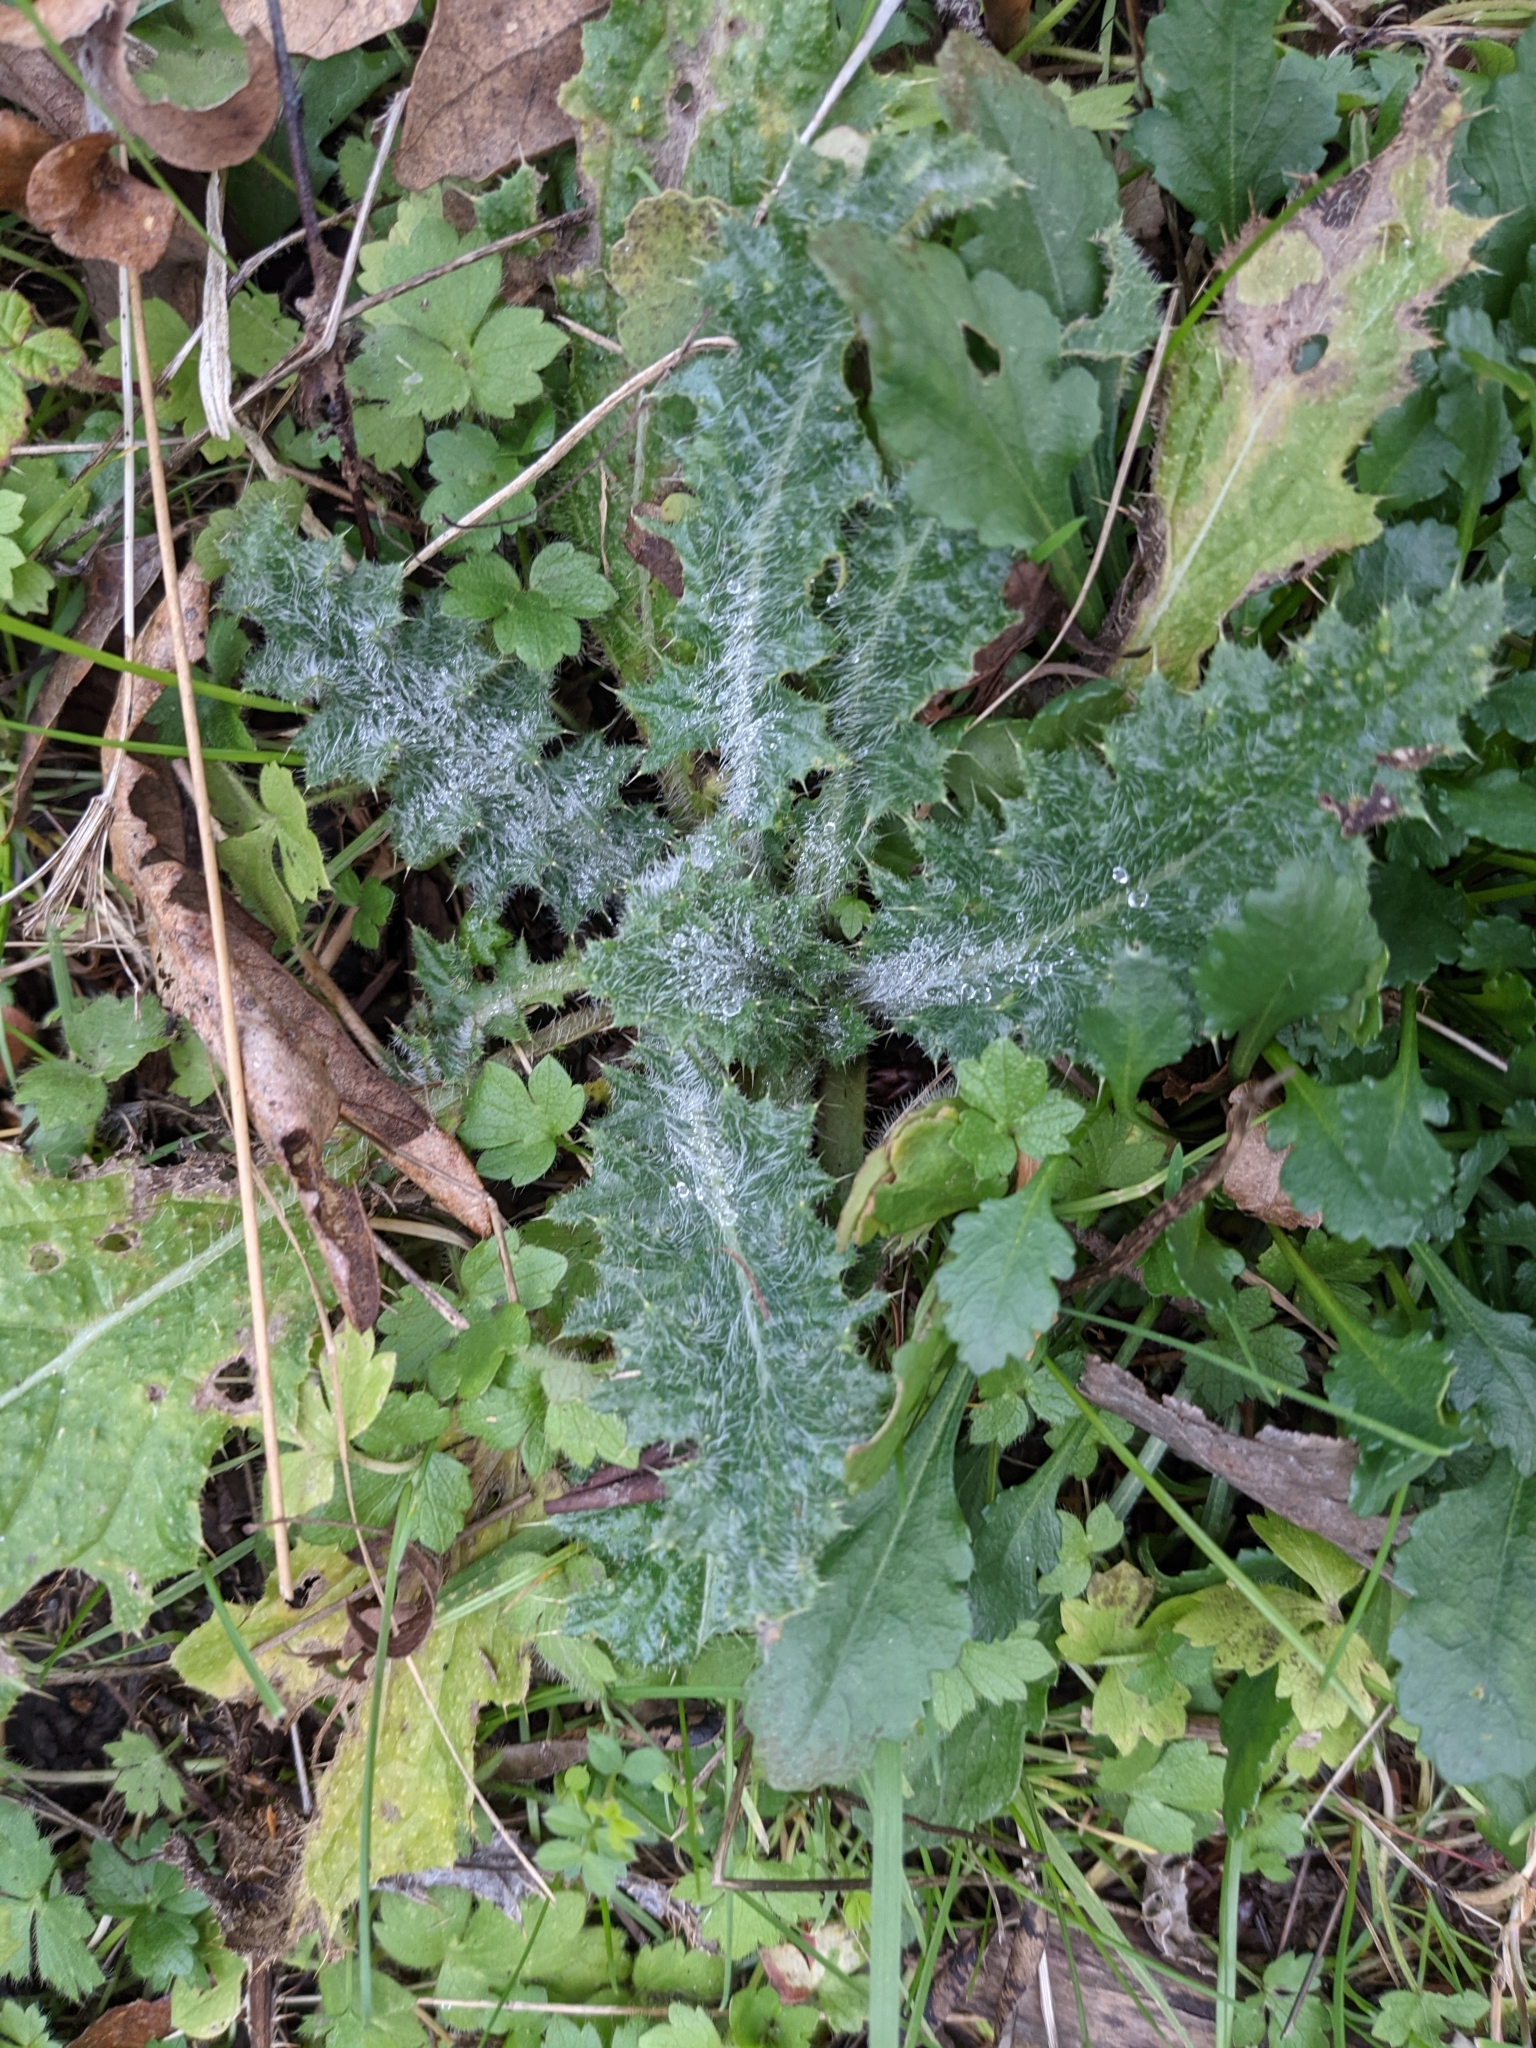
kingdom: Plantae
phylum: Tracheophyta
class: Magnoliopsida
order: Asterales
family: Asteraceae
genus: Cirsium
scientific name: Cirsium vulgare
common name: Bull thistle
